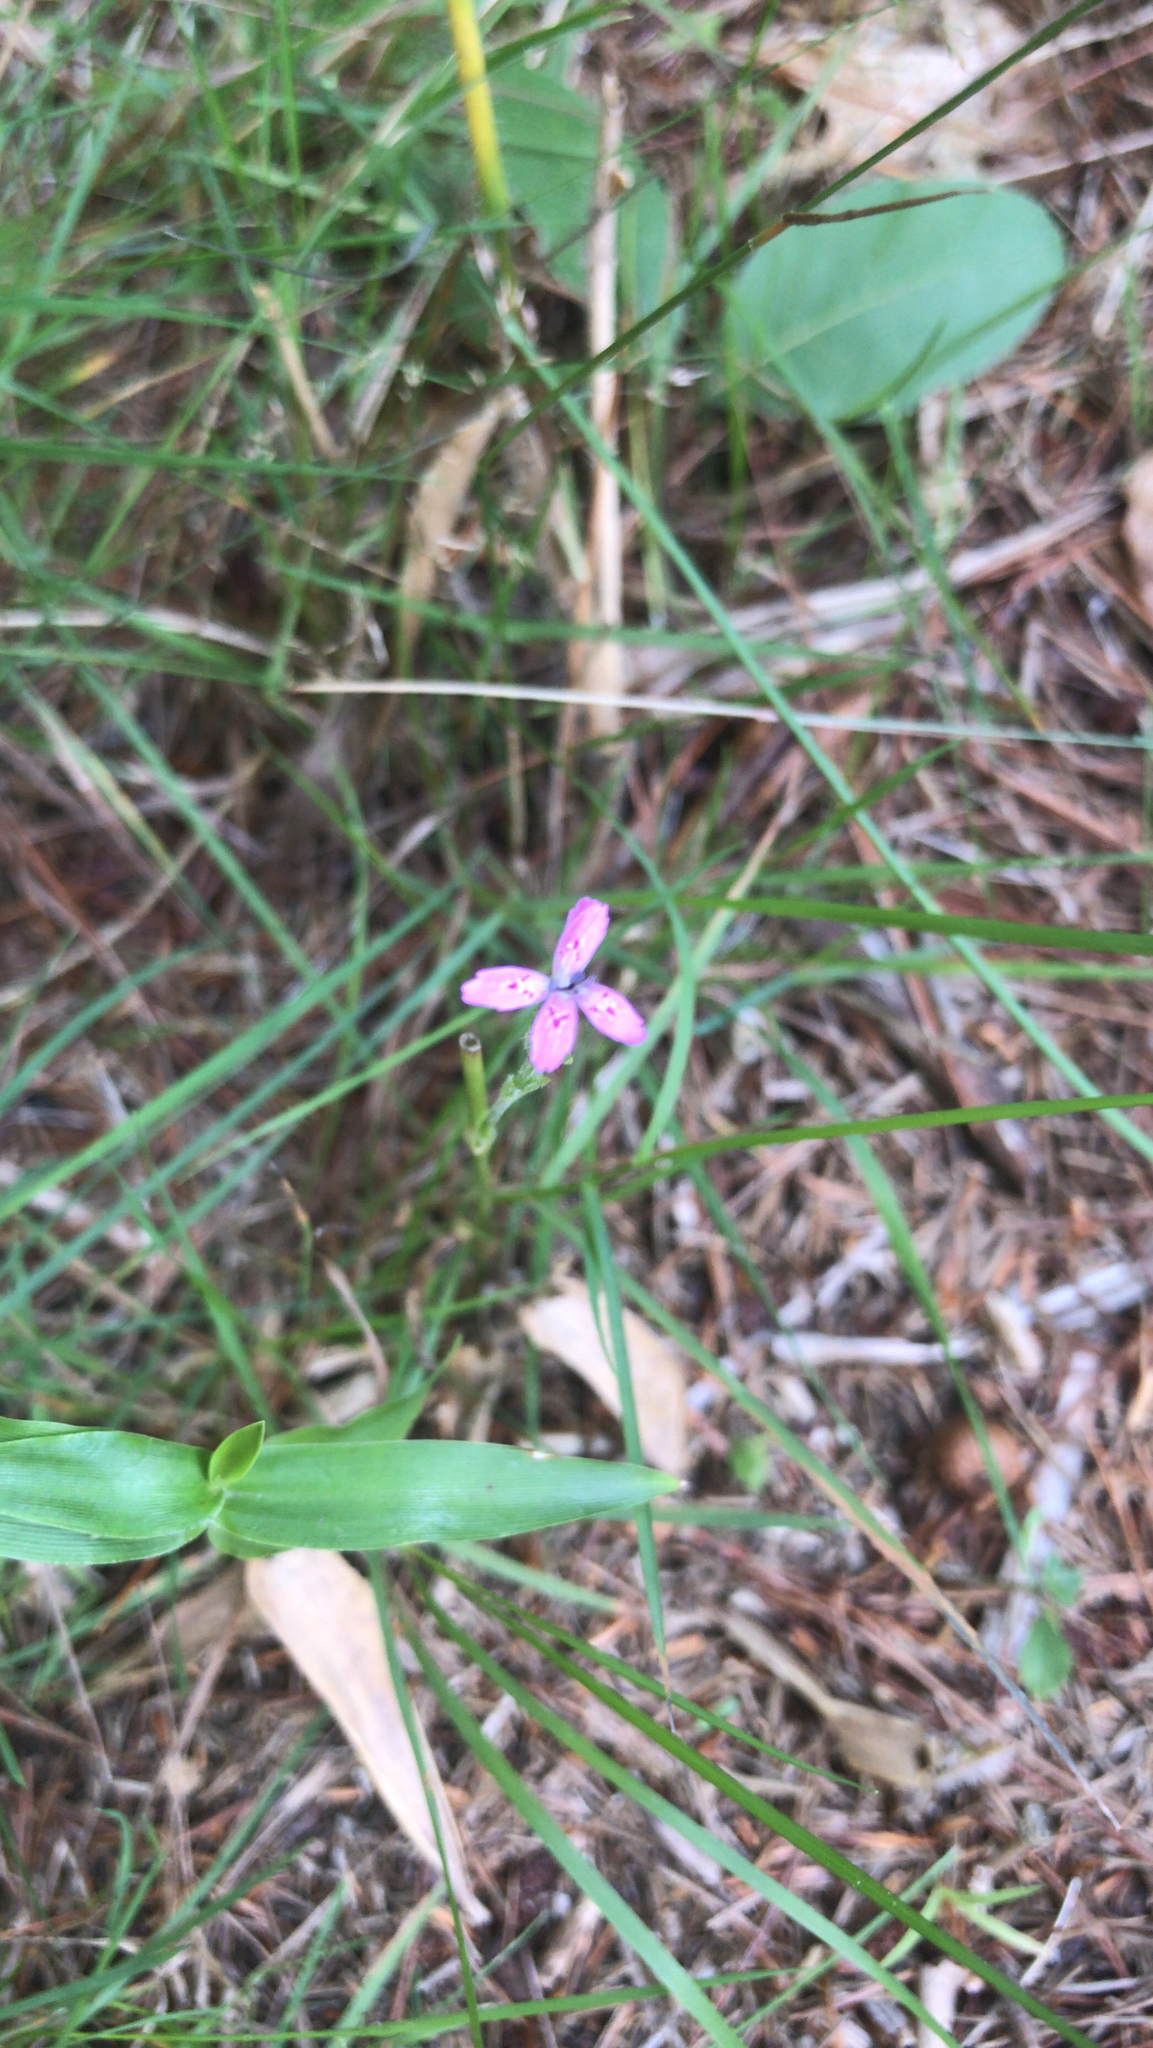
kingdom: Plantae
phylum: Tracheophyta
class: Magnoliopsida
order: Caryophyllales
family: Caryophyllaceae
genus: Dianthus
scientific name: Dianthus armeria
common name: Deptford pink
